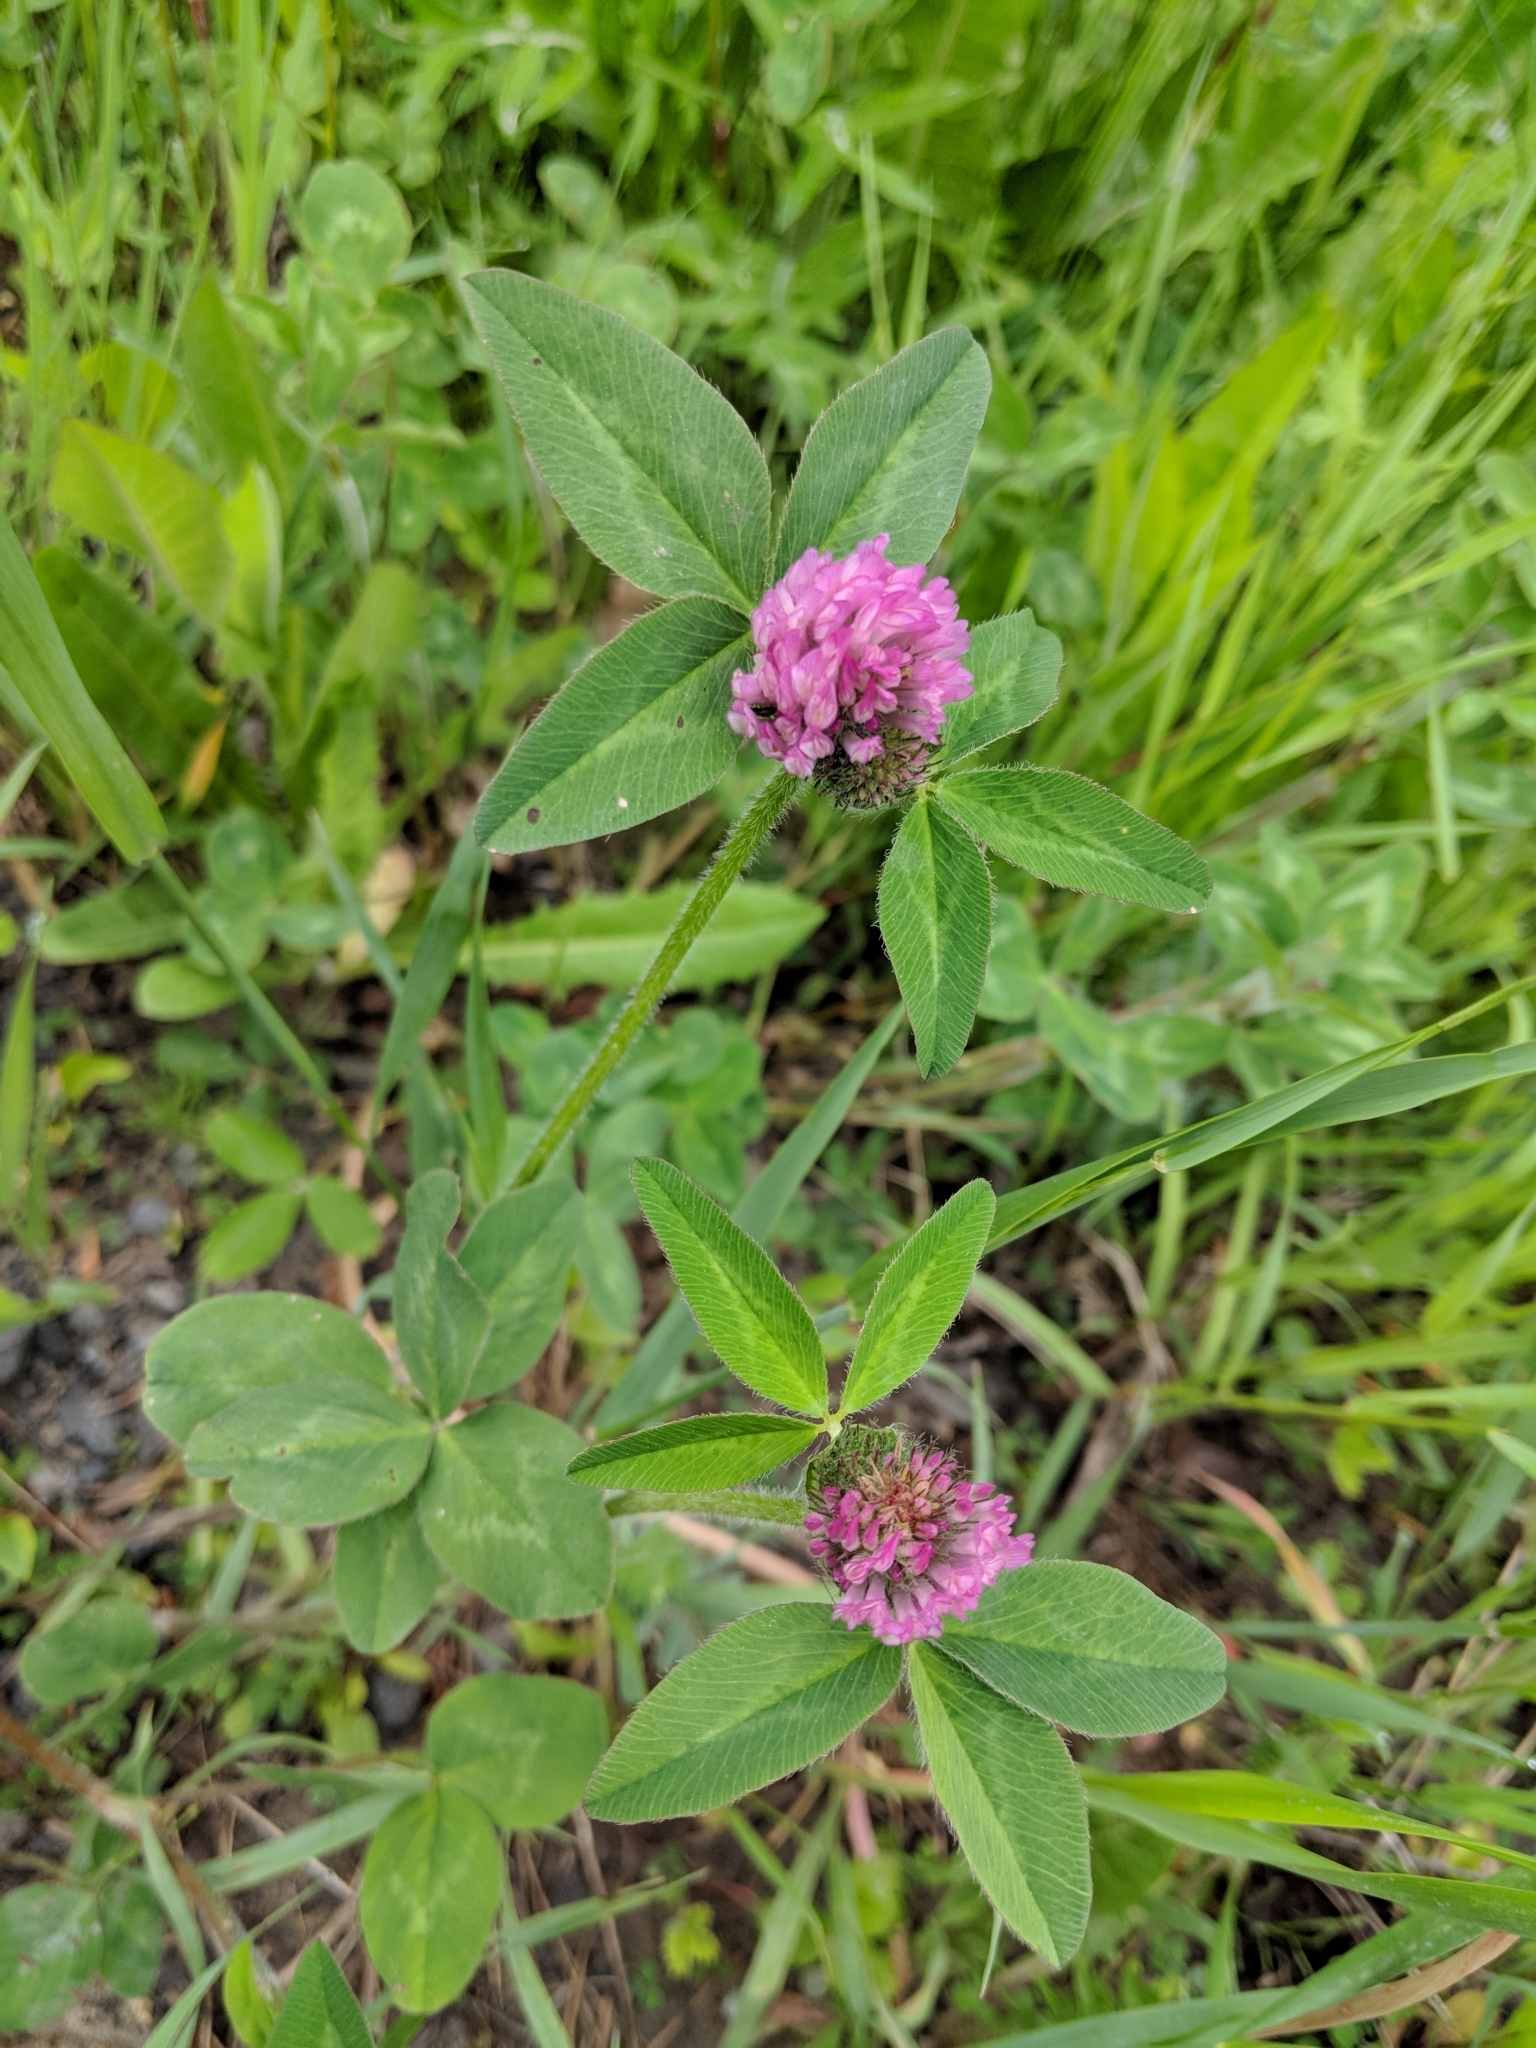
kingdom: Plantae
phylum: Tracheophyta
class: Magnoliopsida
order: Fabales
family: Fabaceae
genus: Trifolium
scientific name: Trifolium pratense
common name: Red clover
